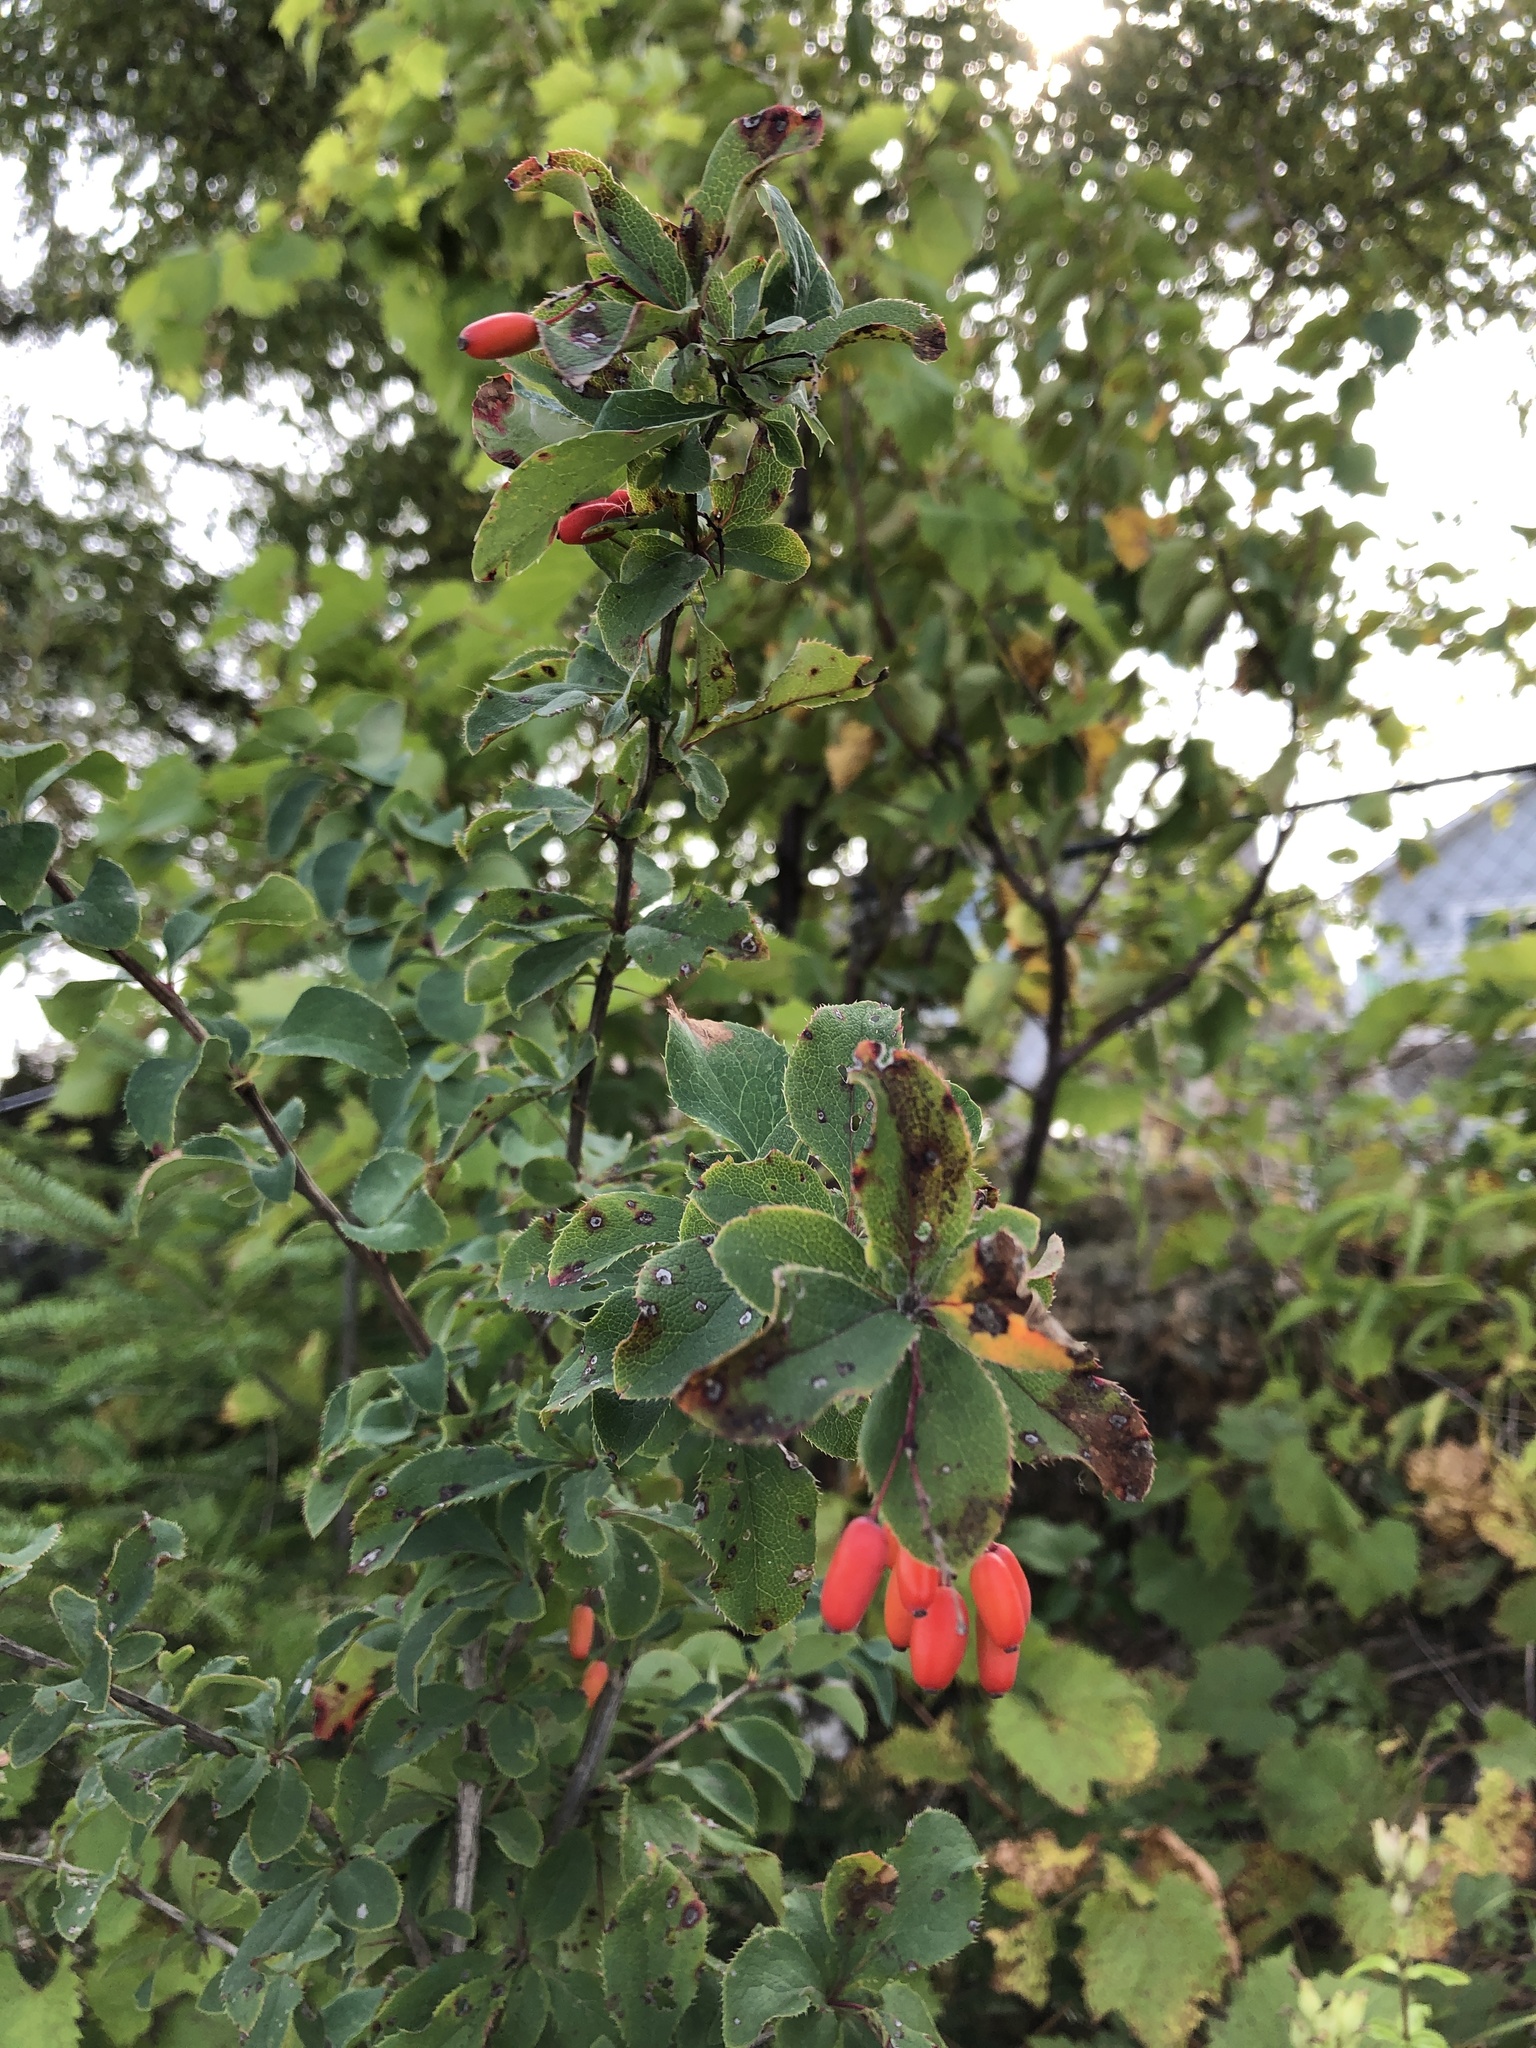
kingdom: Plantae
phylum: Tracheophyta
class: Magnoliopsida
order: Ranunculales
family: Berberidaceae
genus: Berberis
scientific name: Berberis vulgaris
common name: Barberry
